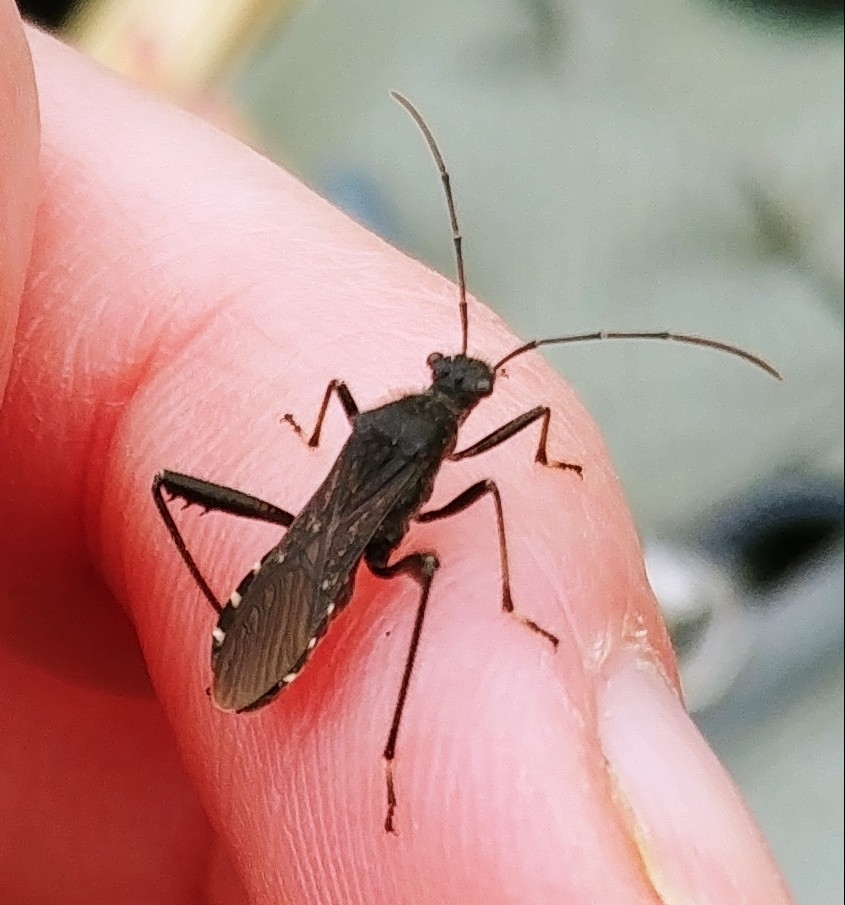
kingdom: Animalia
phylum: Arthropoda
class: Insecta
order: Hemiptera
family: Alydidae
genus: Alydus
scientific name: Alydus eurinus
